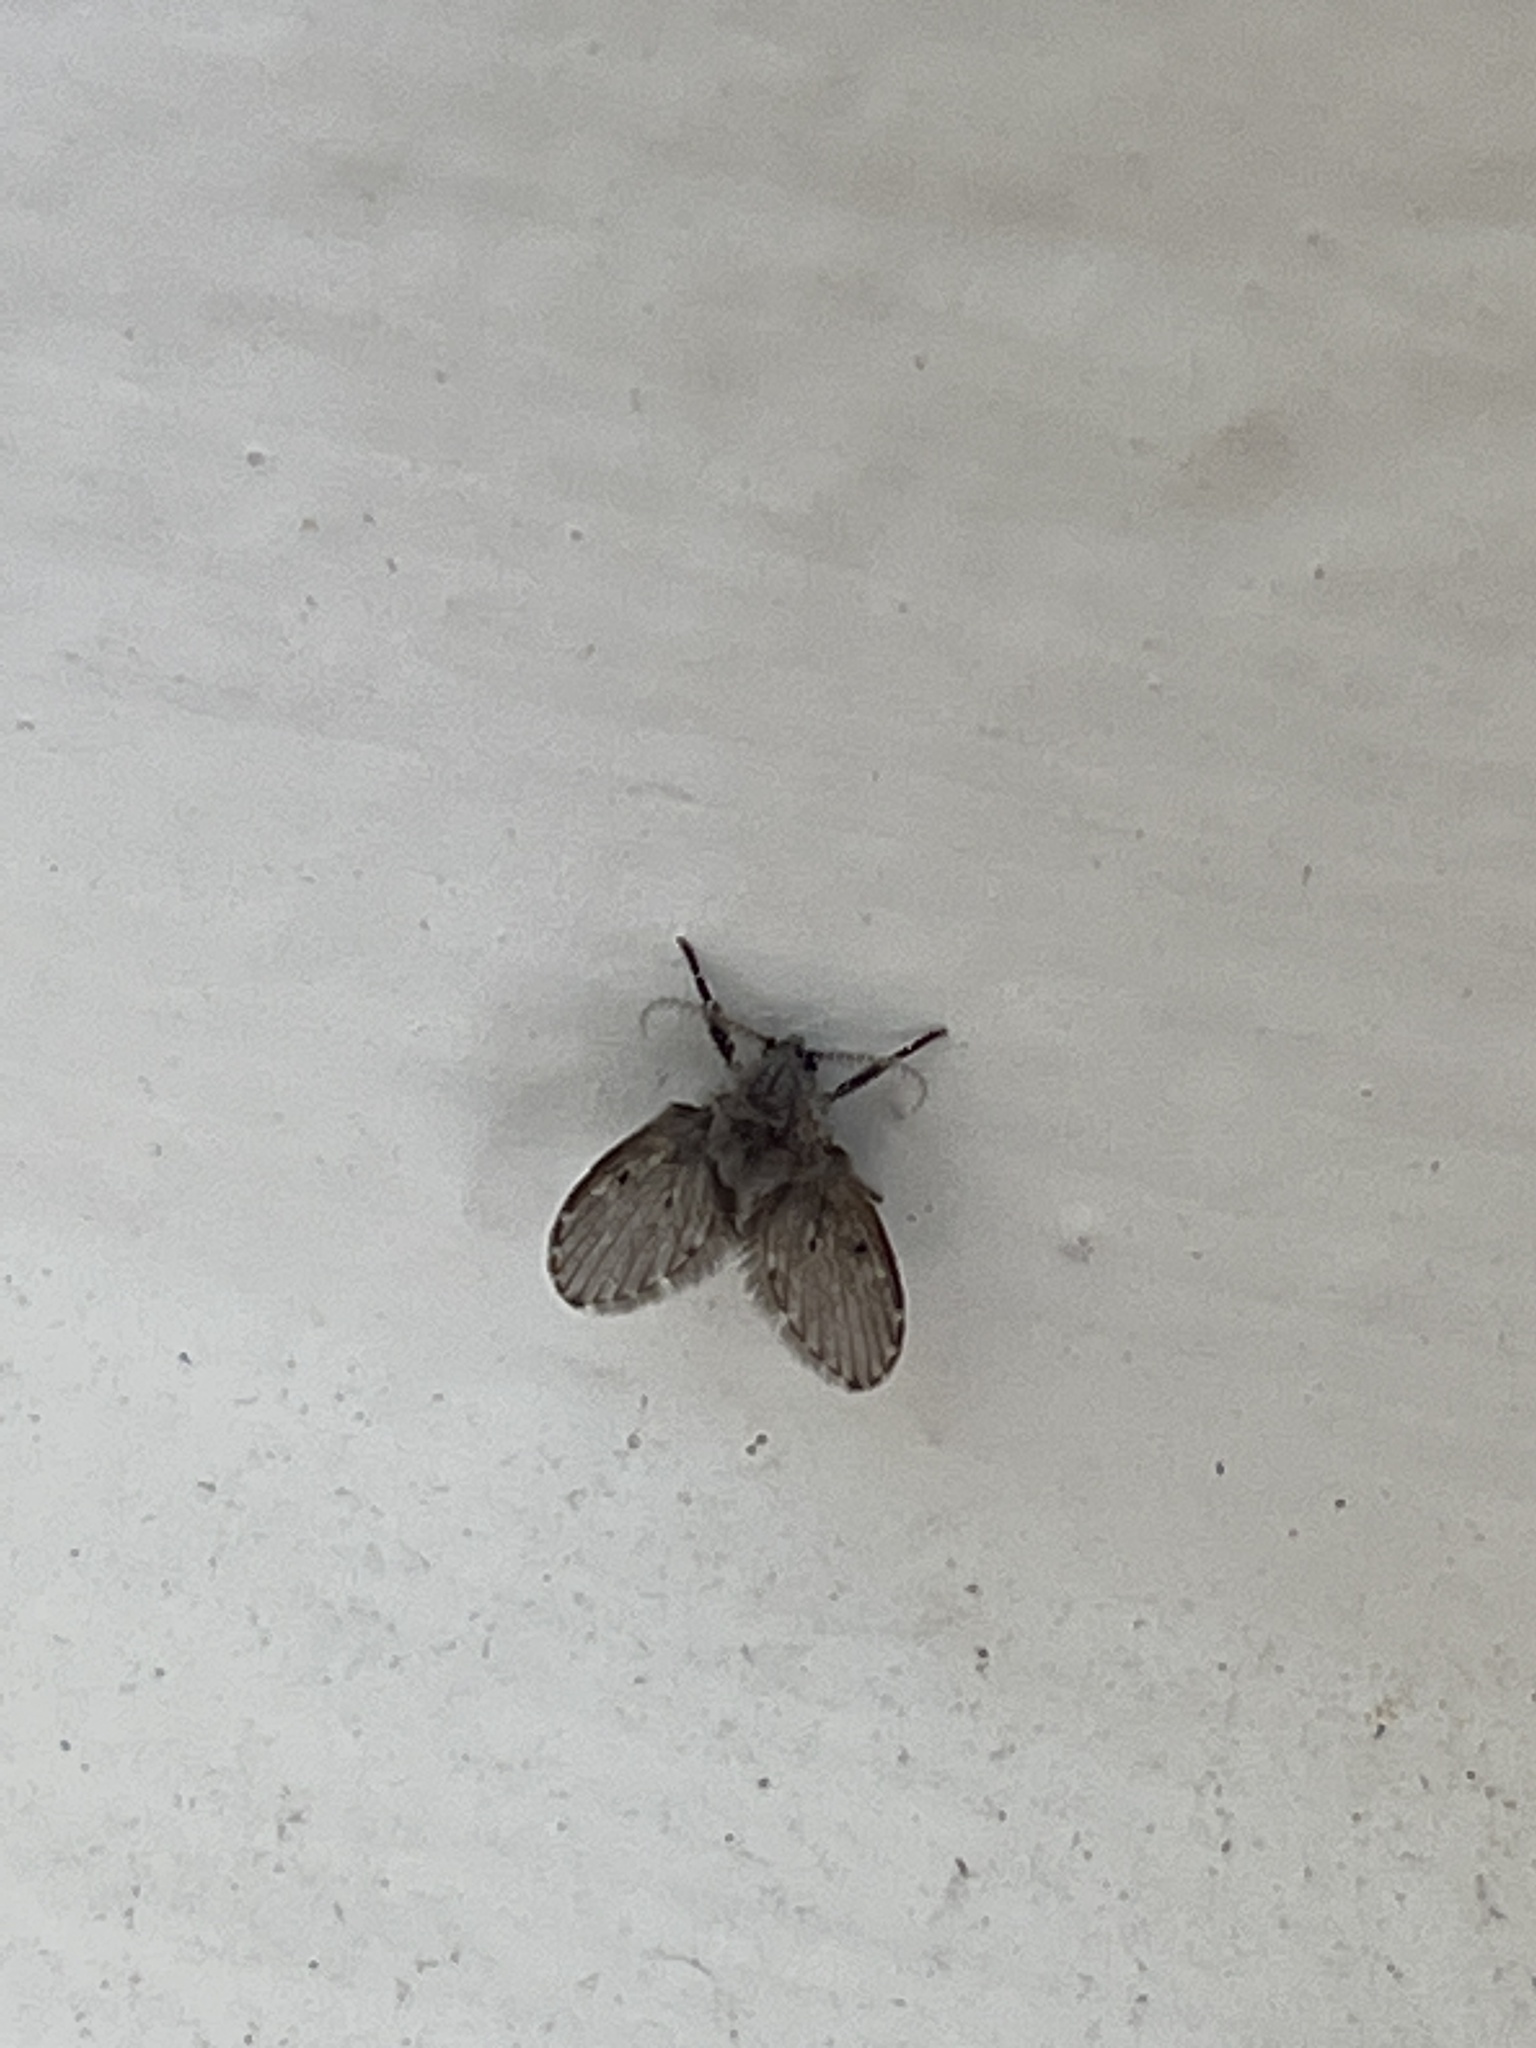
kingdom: Animalia
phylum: Arthropoda
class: Insecta
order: Diptera
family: Psychodidae
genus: Clogmia
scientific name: Clogmia albipunctatus
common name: White-spotted moth fly
